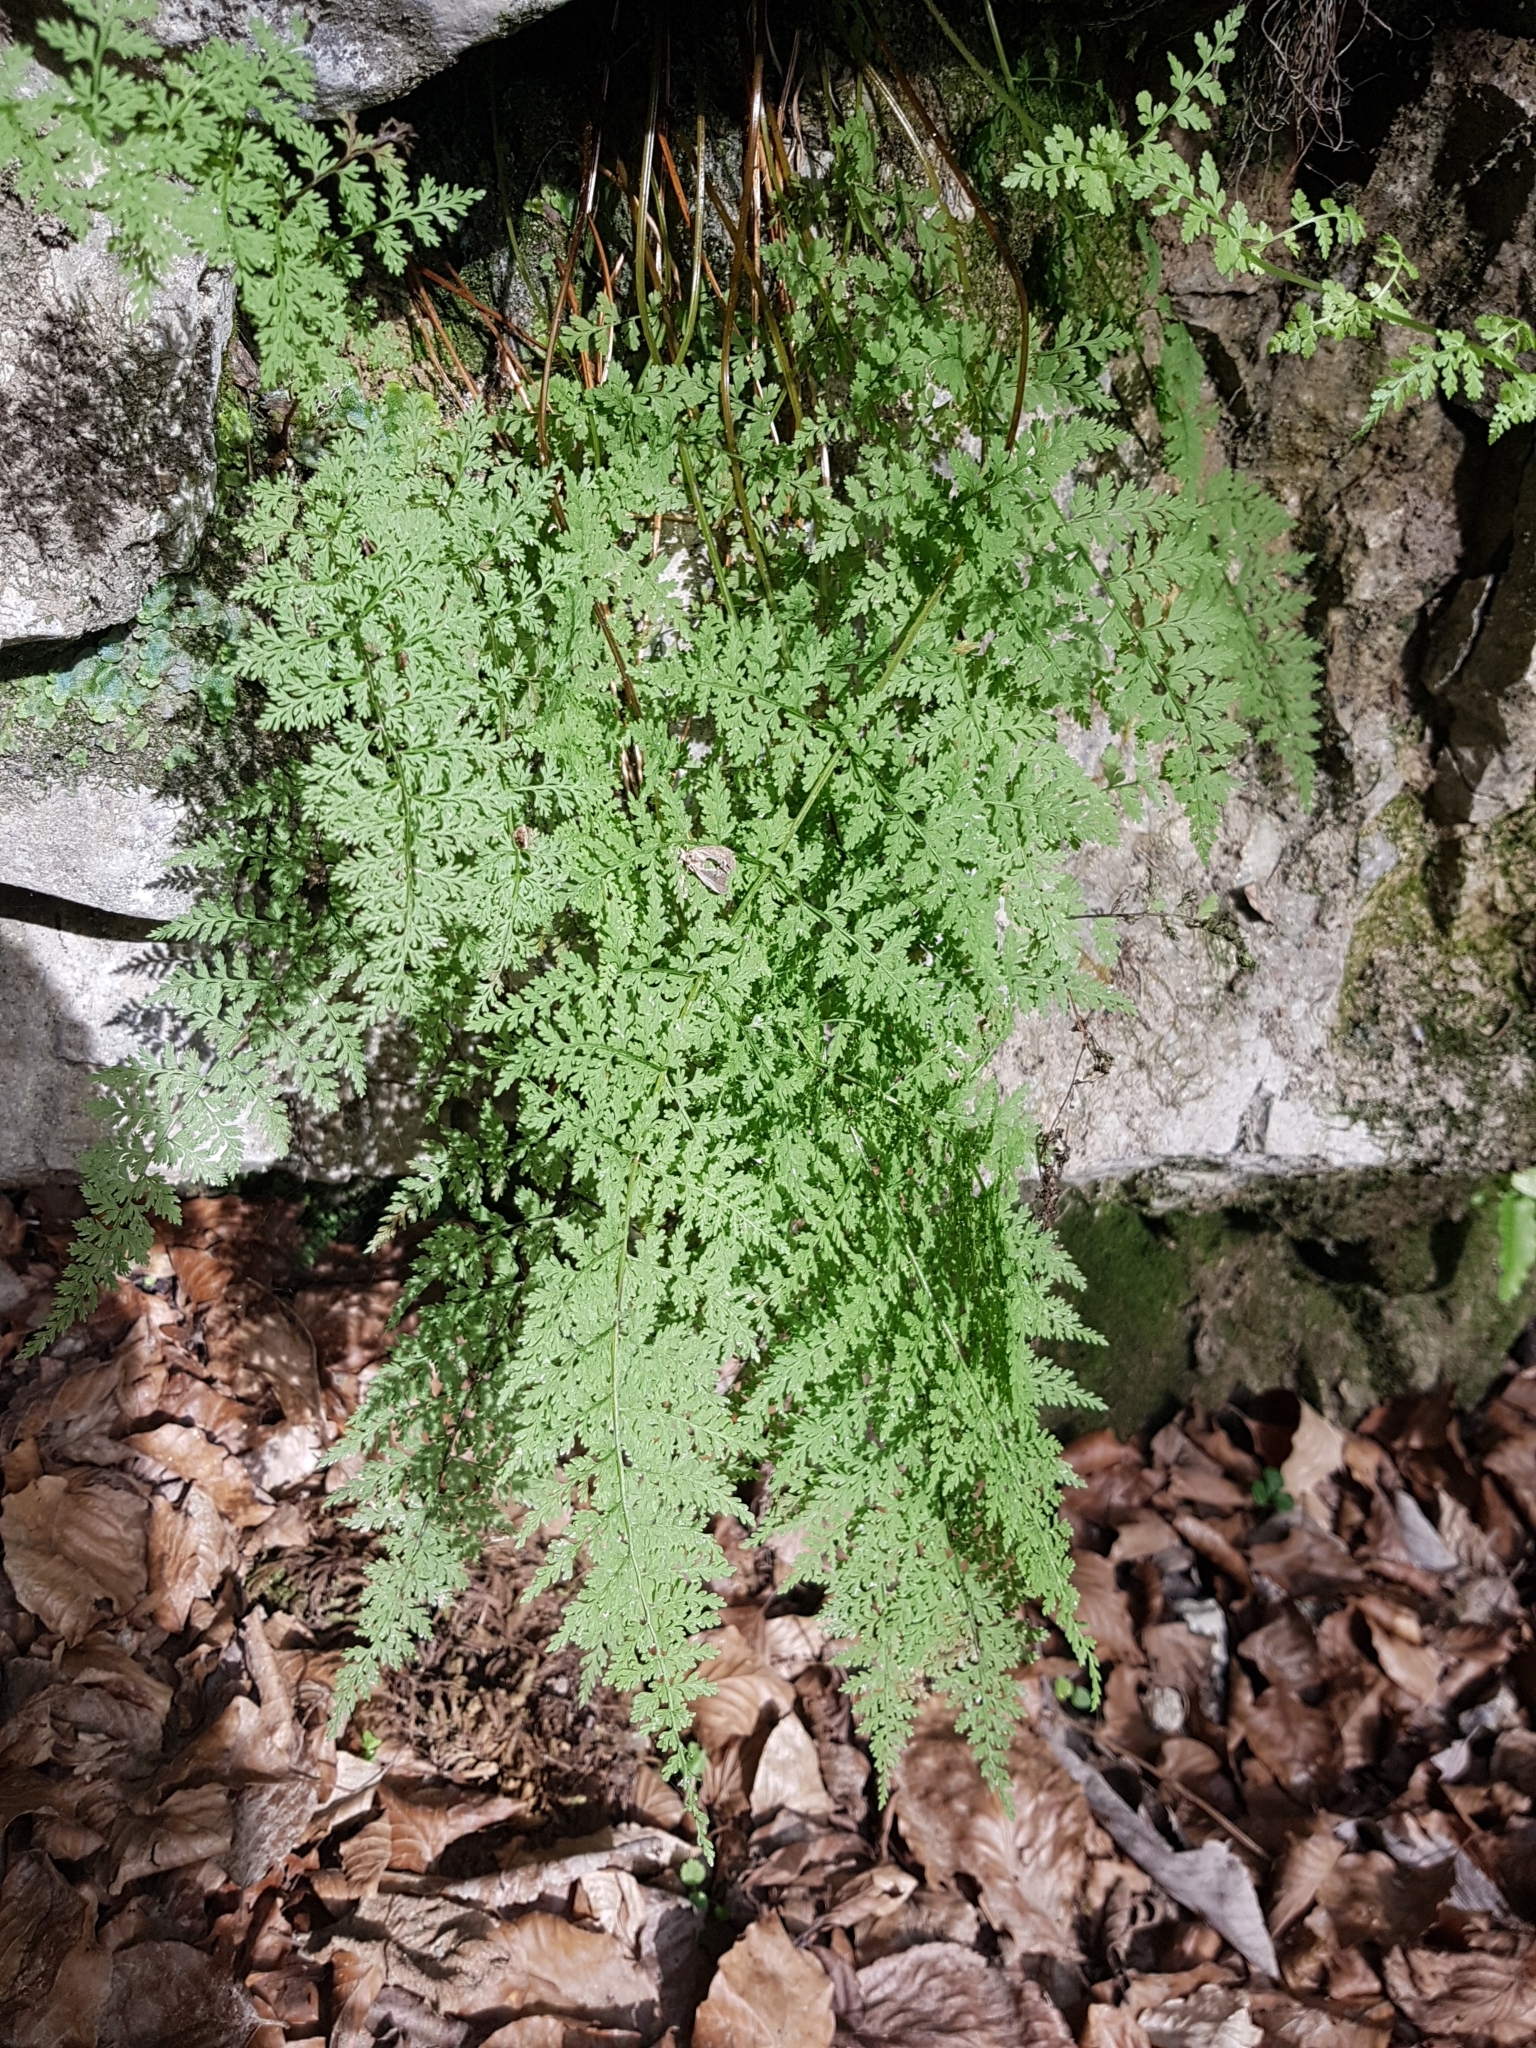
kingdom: Plantae
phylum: Tracheophyta
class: Polypodiopsida
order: Polypodiales
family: Cystopteridaceae
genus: Cystopteris
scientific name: Cystopteris fragilis
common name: Brittle bladder fern
